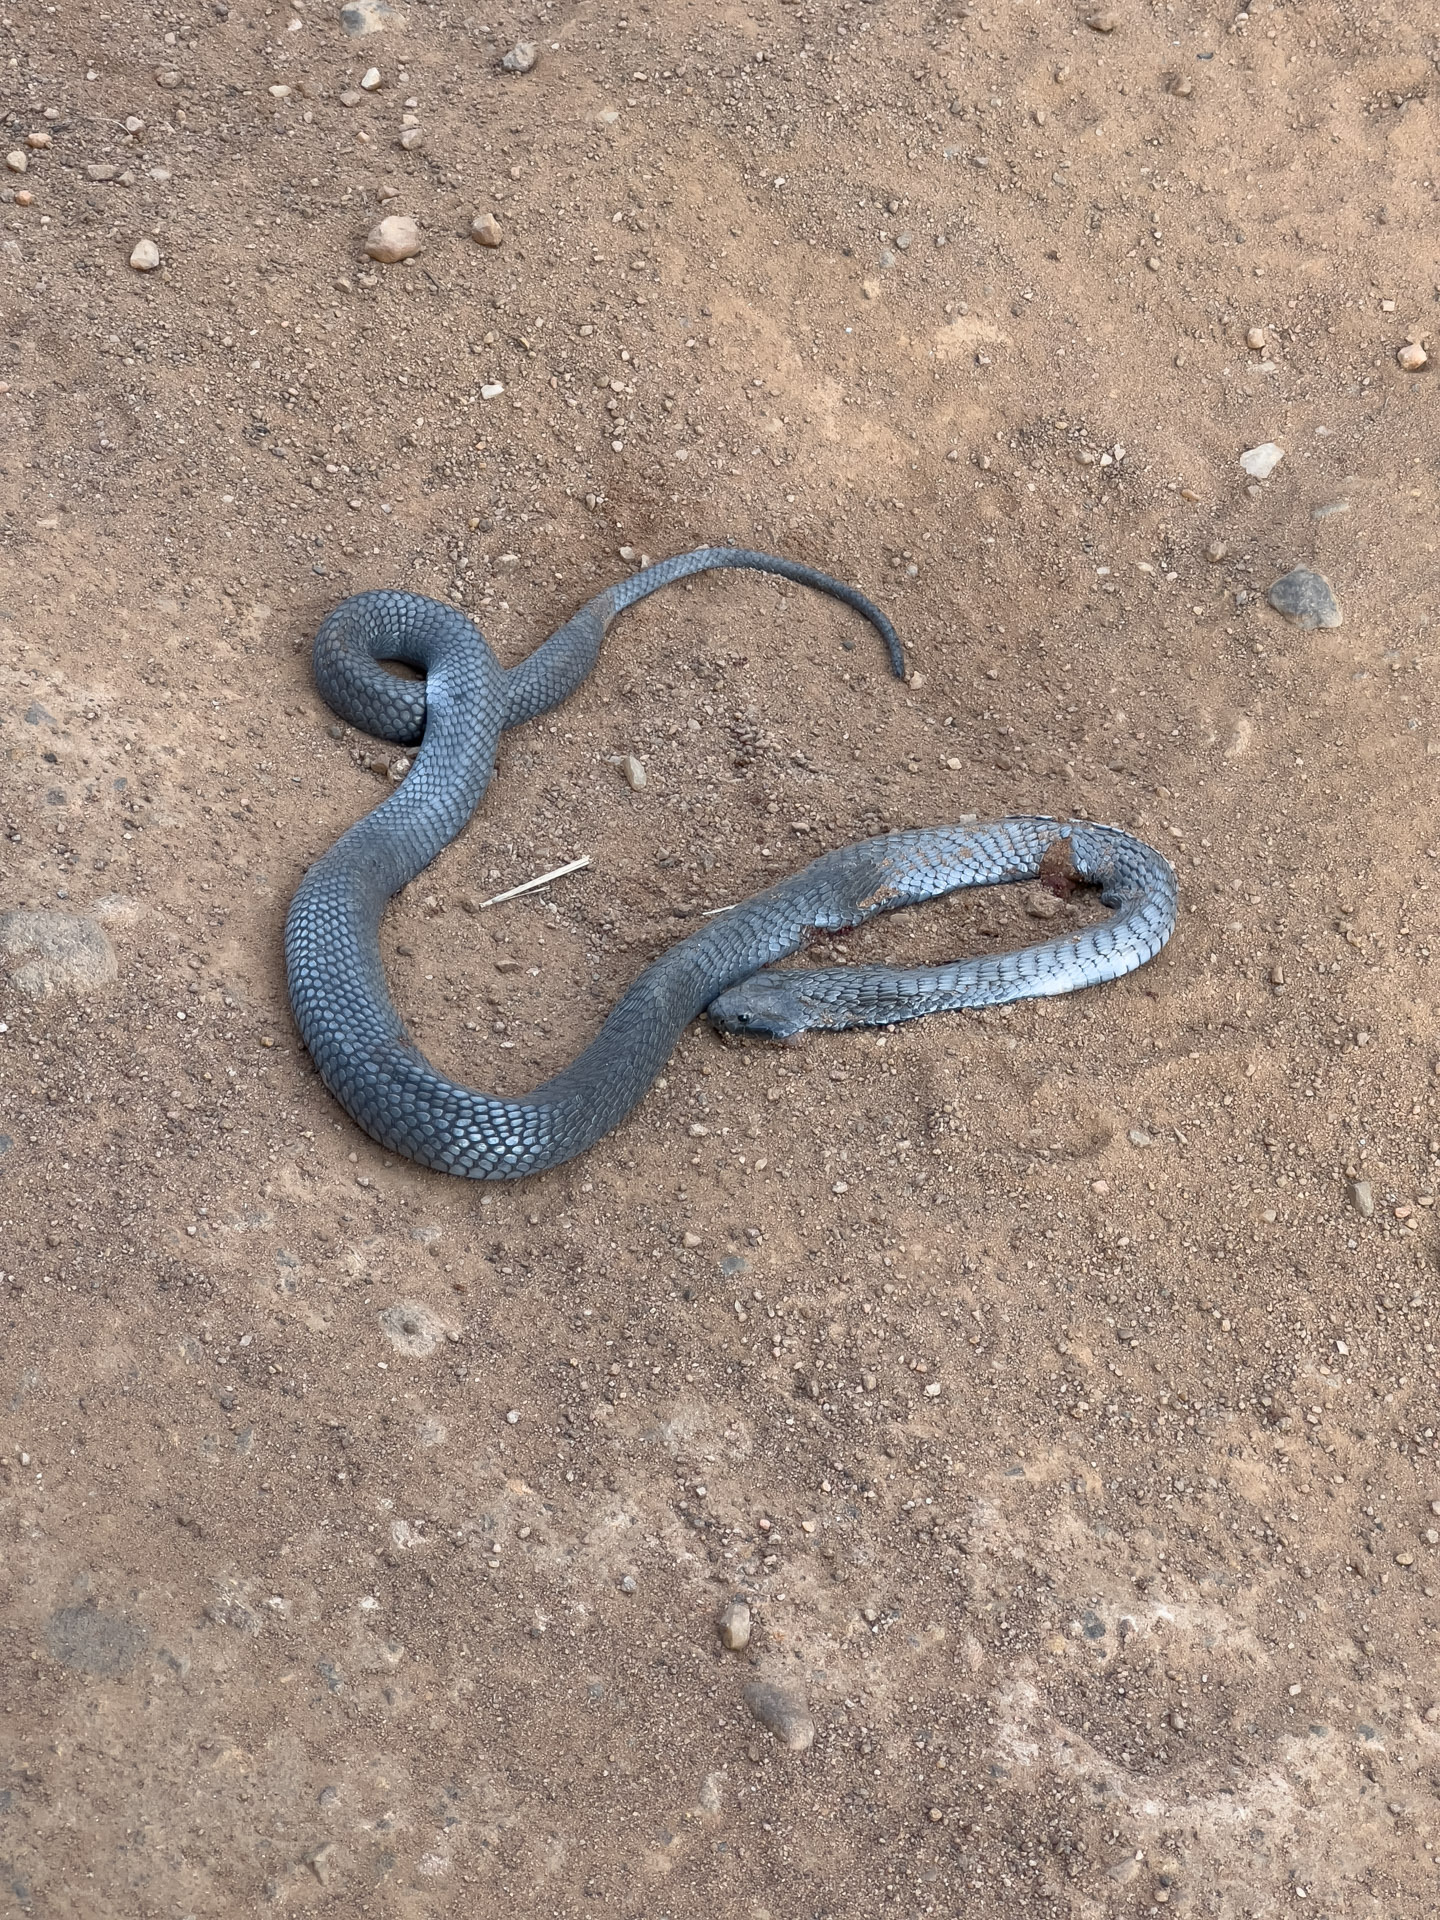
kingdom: Animalia
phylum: Chordata
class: Squamata
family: Elapidae
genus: Naja
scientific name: Naja nigricollis
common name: Black-necked spitting cobra
